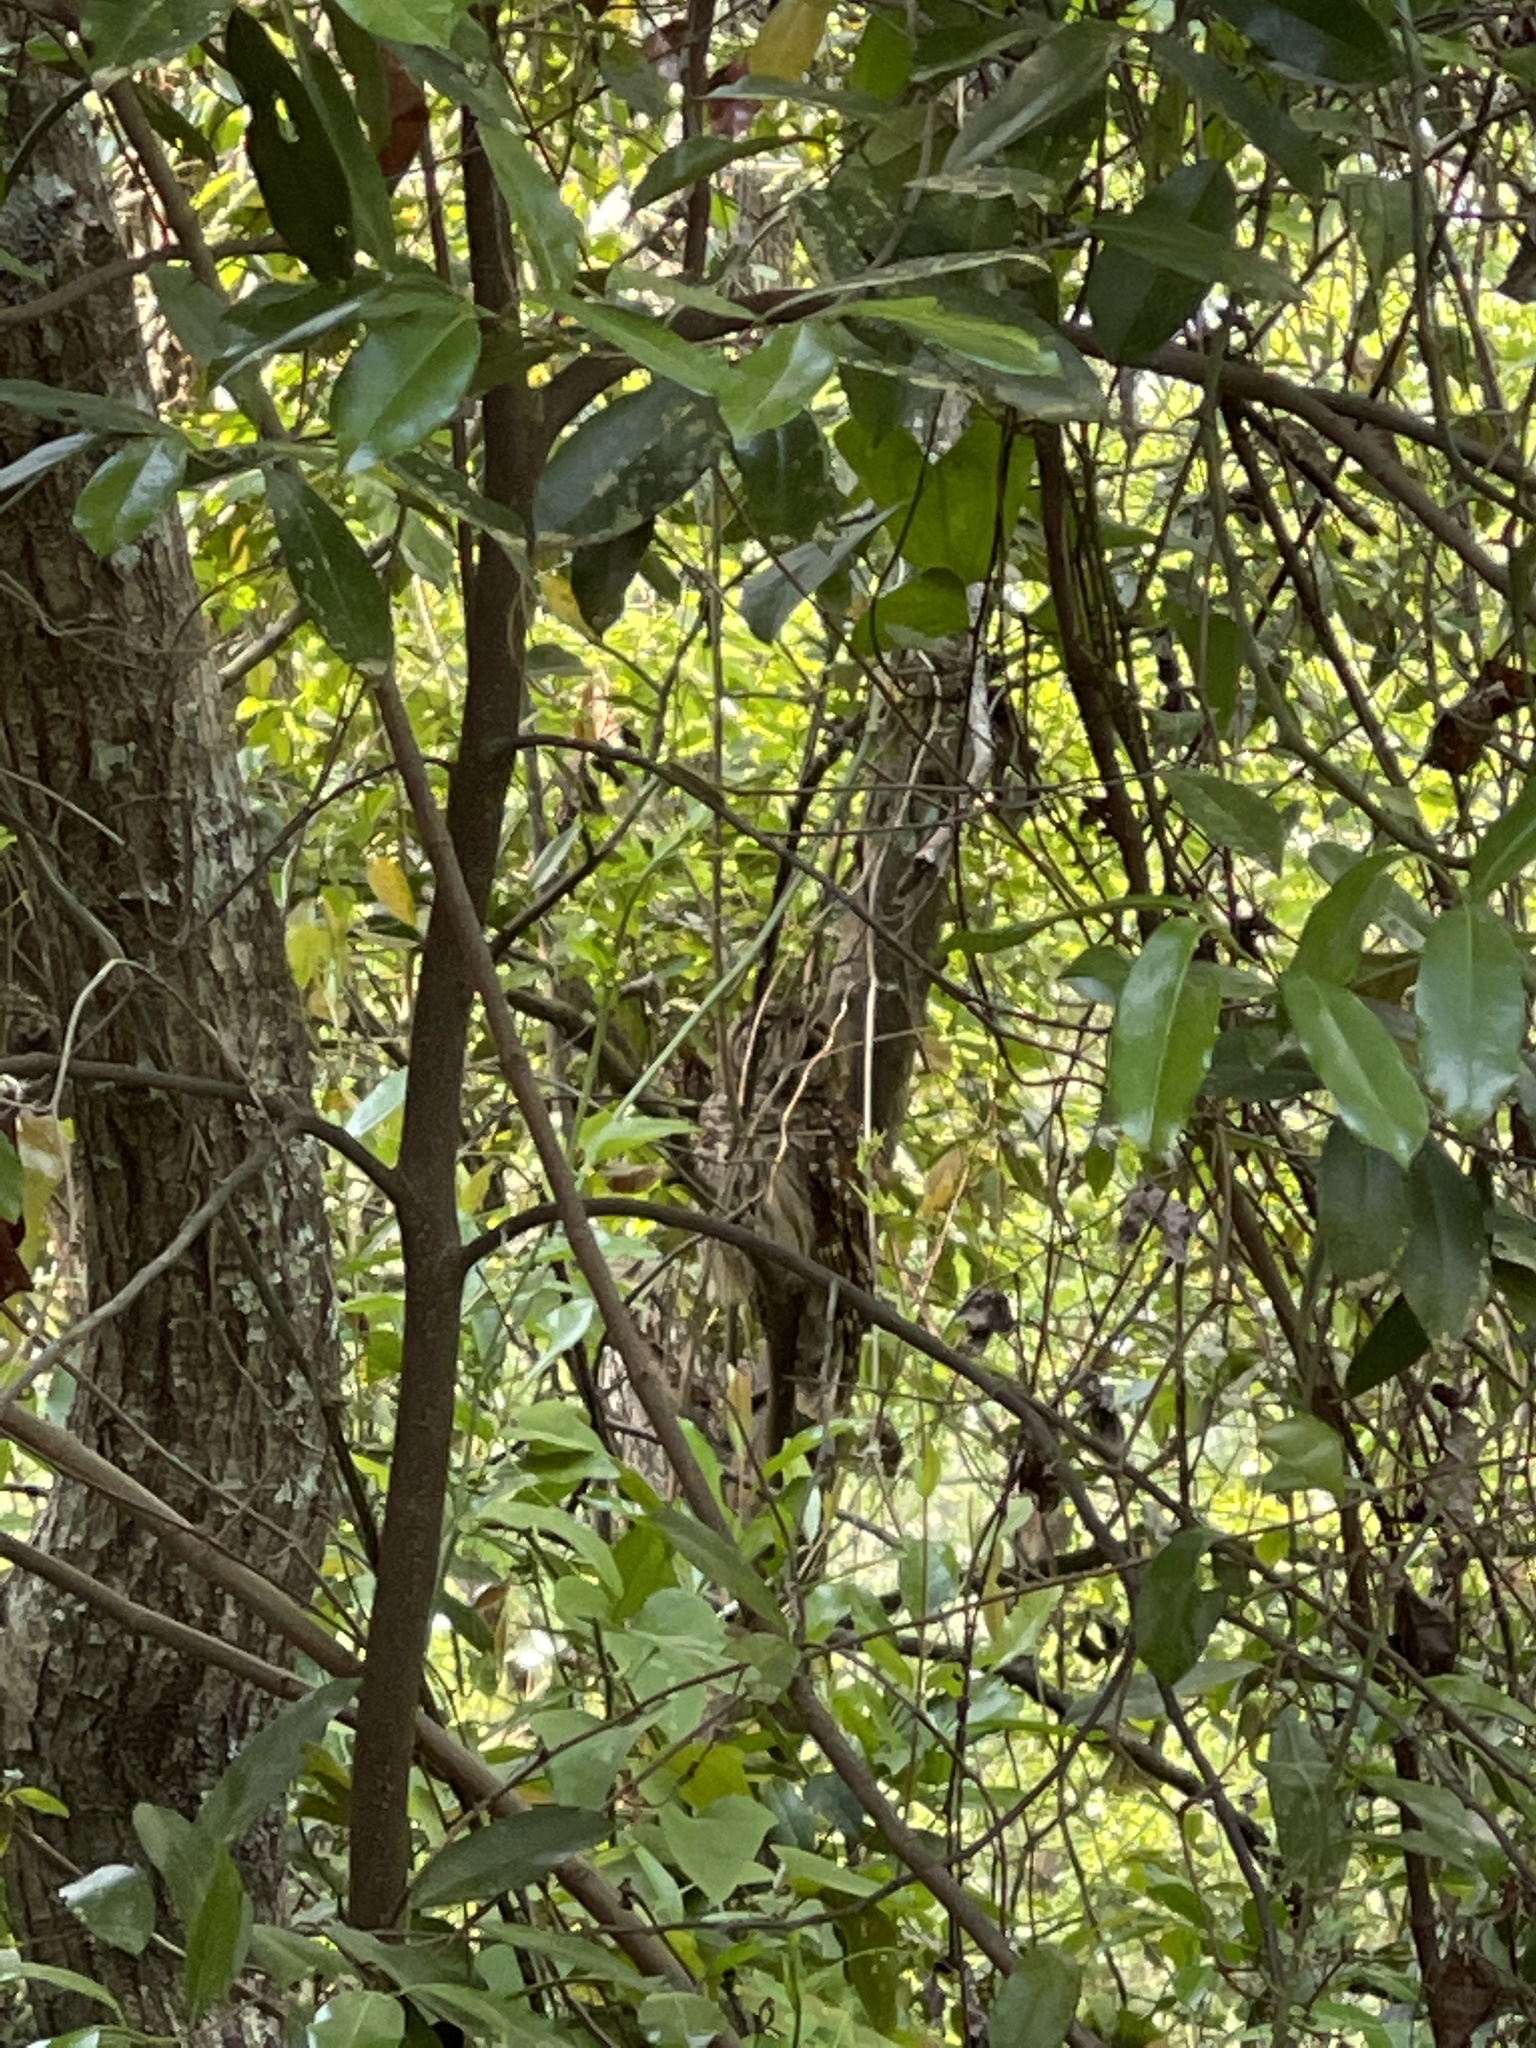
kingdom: Animalia
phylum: Chordata
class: Aves
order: Strigiformes
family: Strigidae
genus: Strix
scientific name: Strix varia
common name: Barred owl
